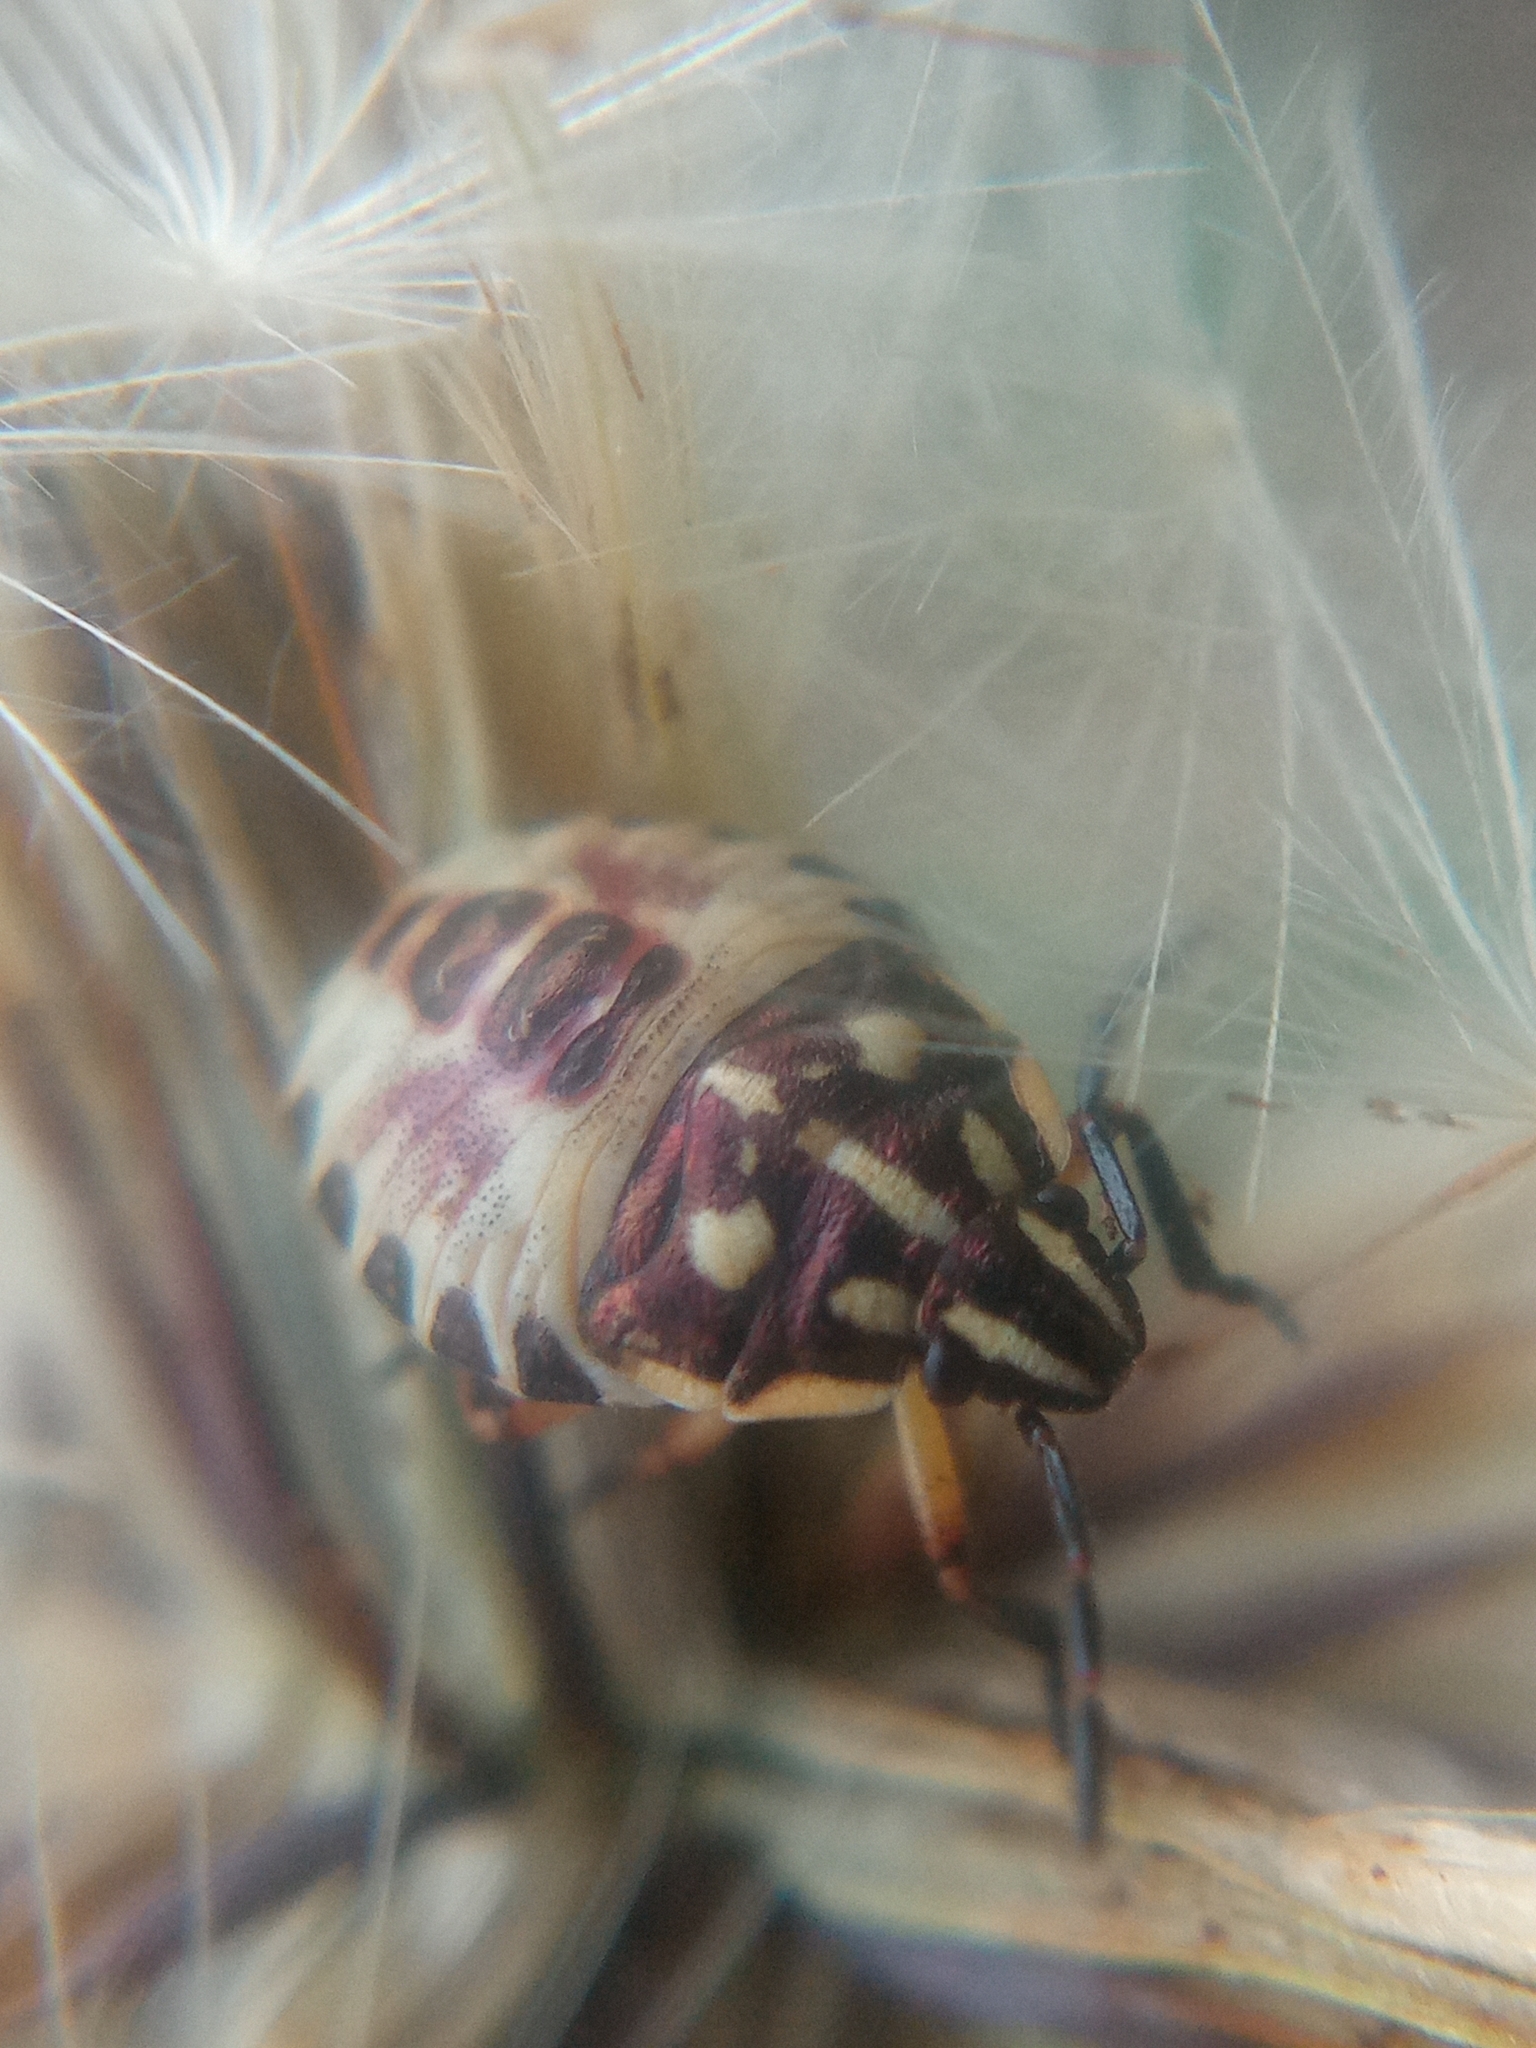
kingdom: Animalia
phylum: Arthropoda
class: Insecta
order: Hemiptera
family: Pentatomidae
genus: Carpocoris
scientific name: Carpocoris
